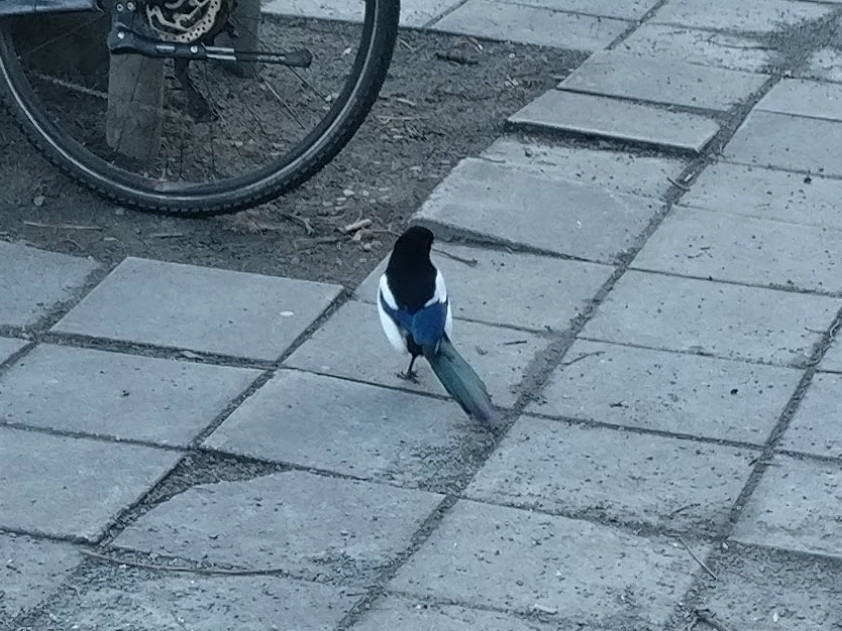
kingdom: Animalia
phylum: Chordata
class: Aves
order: Passeriformes
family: Corvidae
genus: Pica
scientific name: Pica pica
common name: Eurasian magpie
